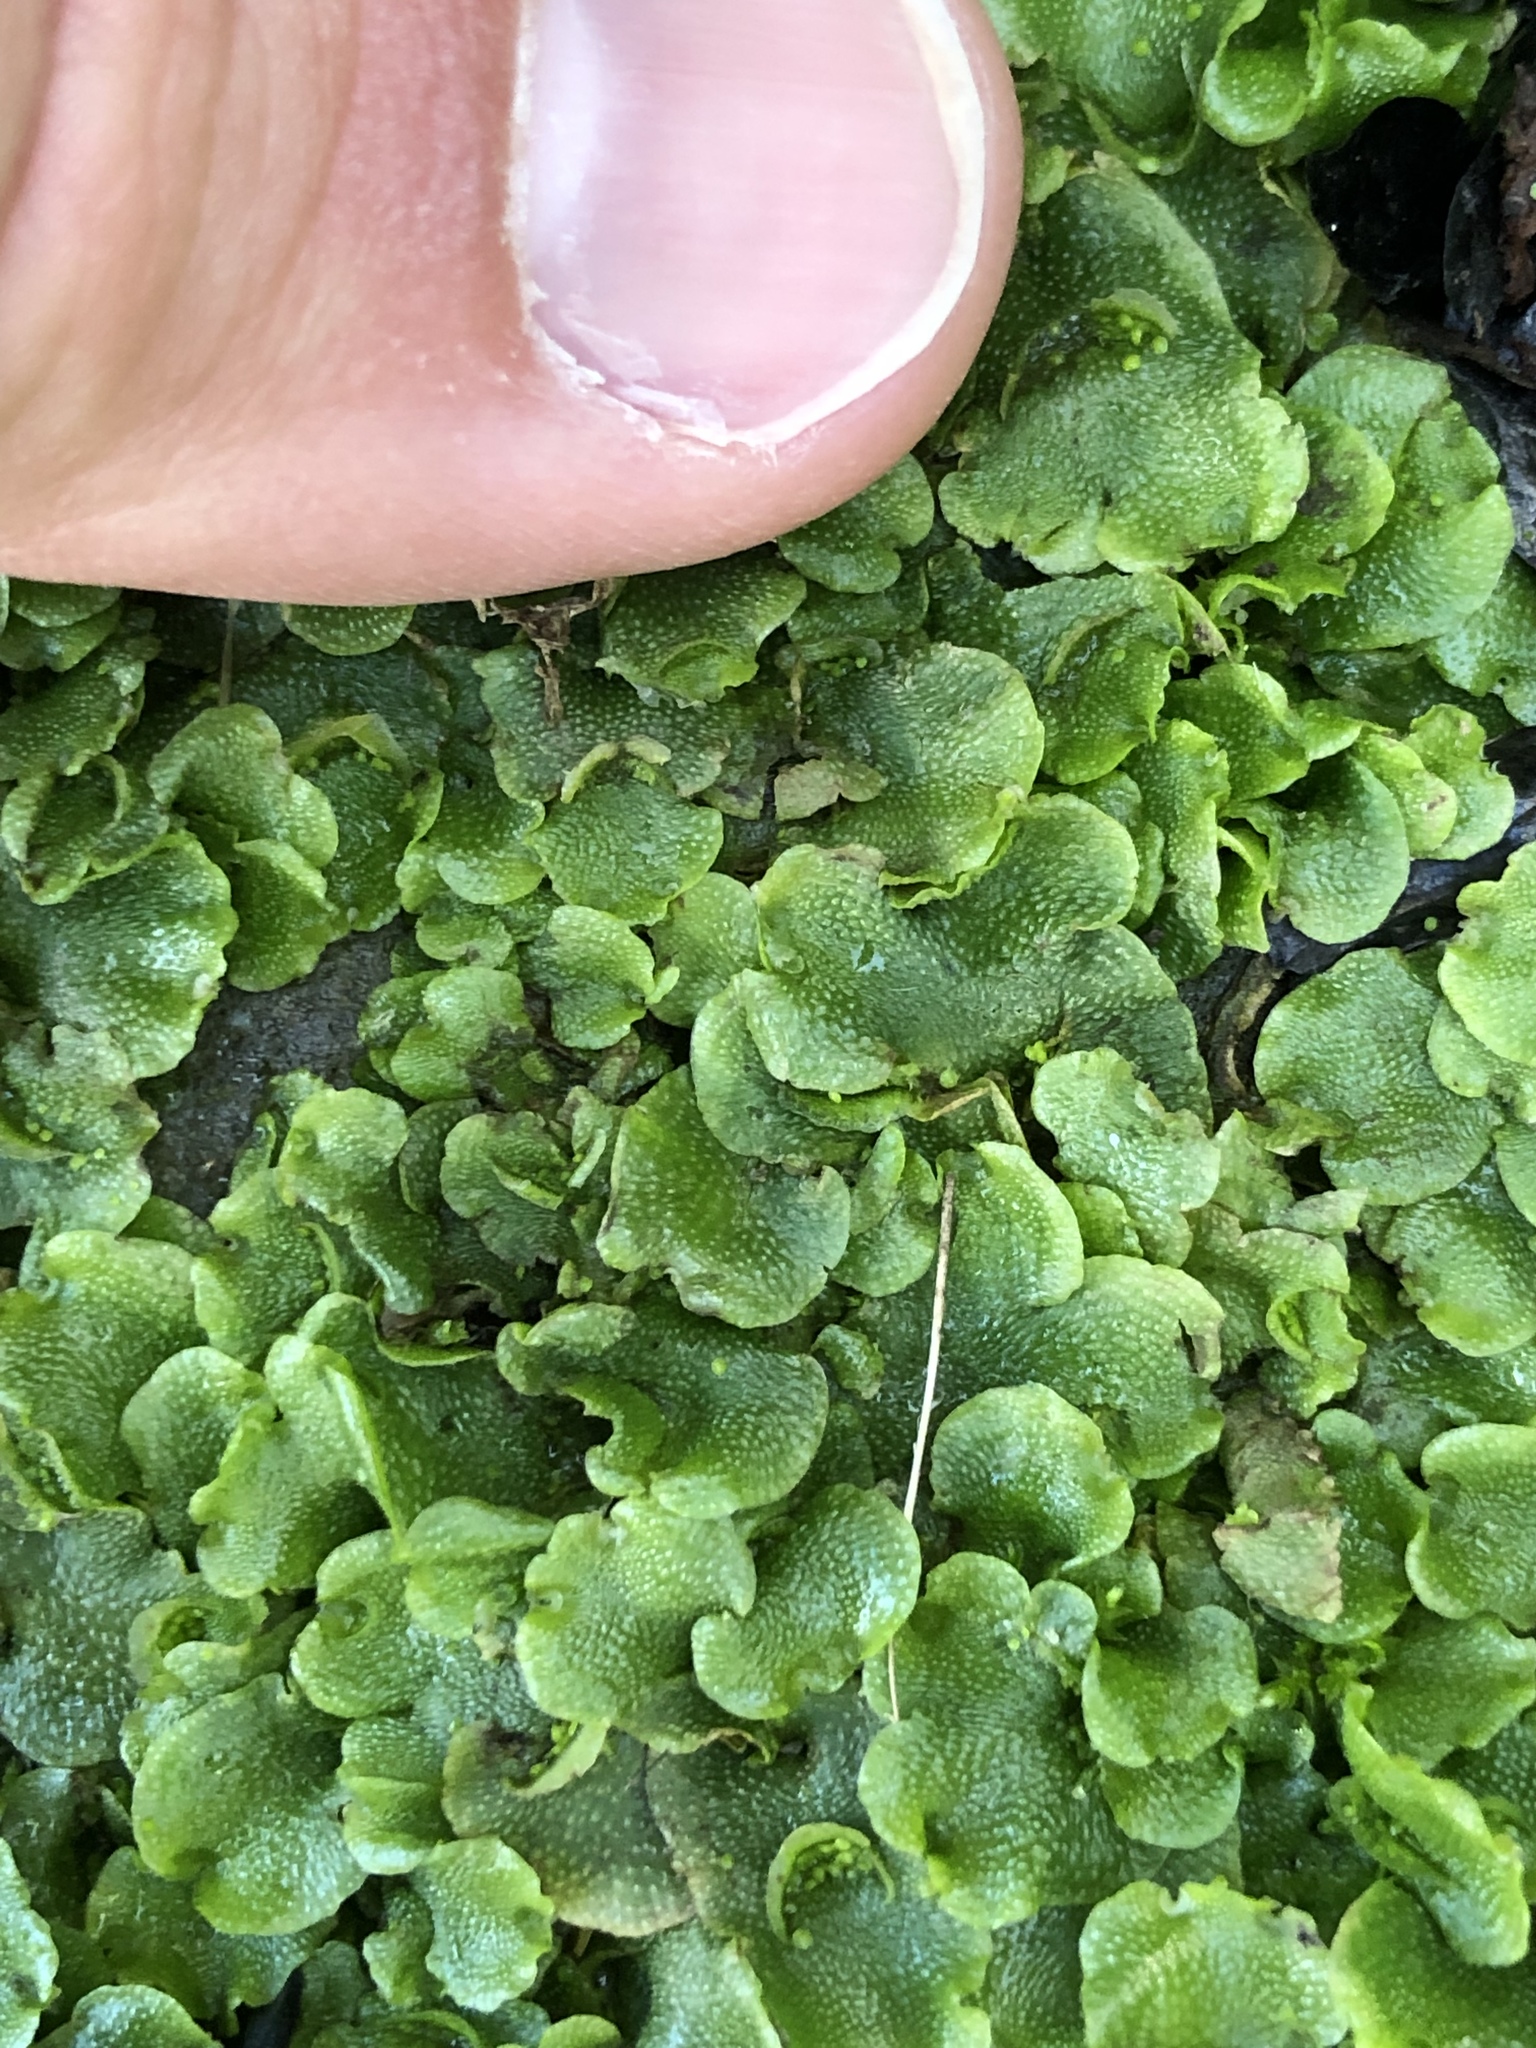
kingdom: Plantae
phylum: Marchantiophyta
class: Marchantiopsida
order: Lunulariales
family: Lunulariaceae
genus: Lunularia
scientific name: Lunularia cruciata
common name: Crescent-cup liverwort
